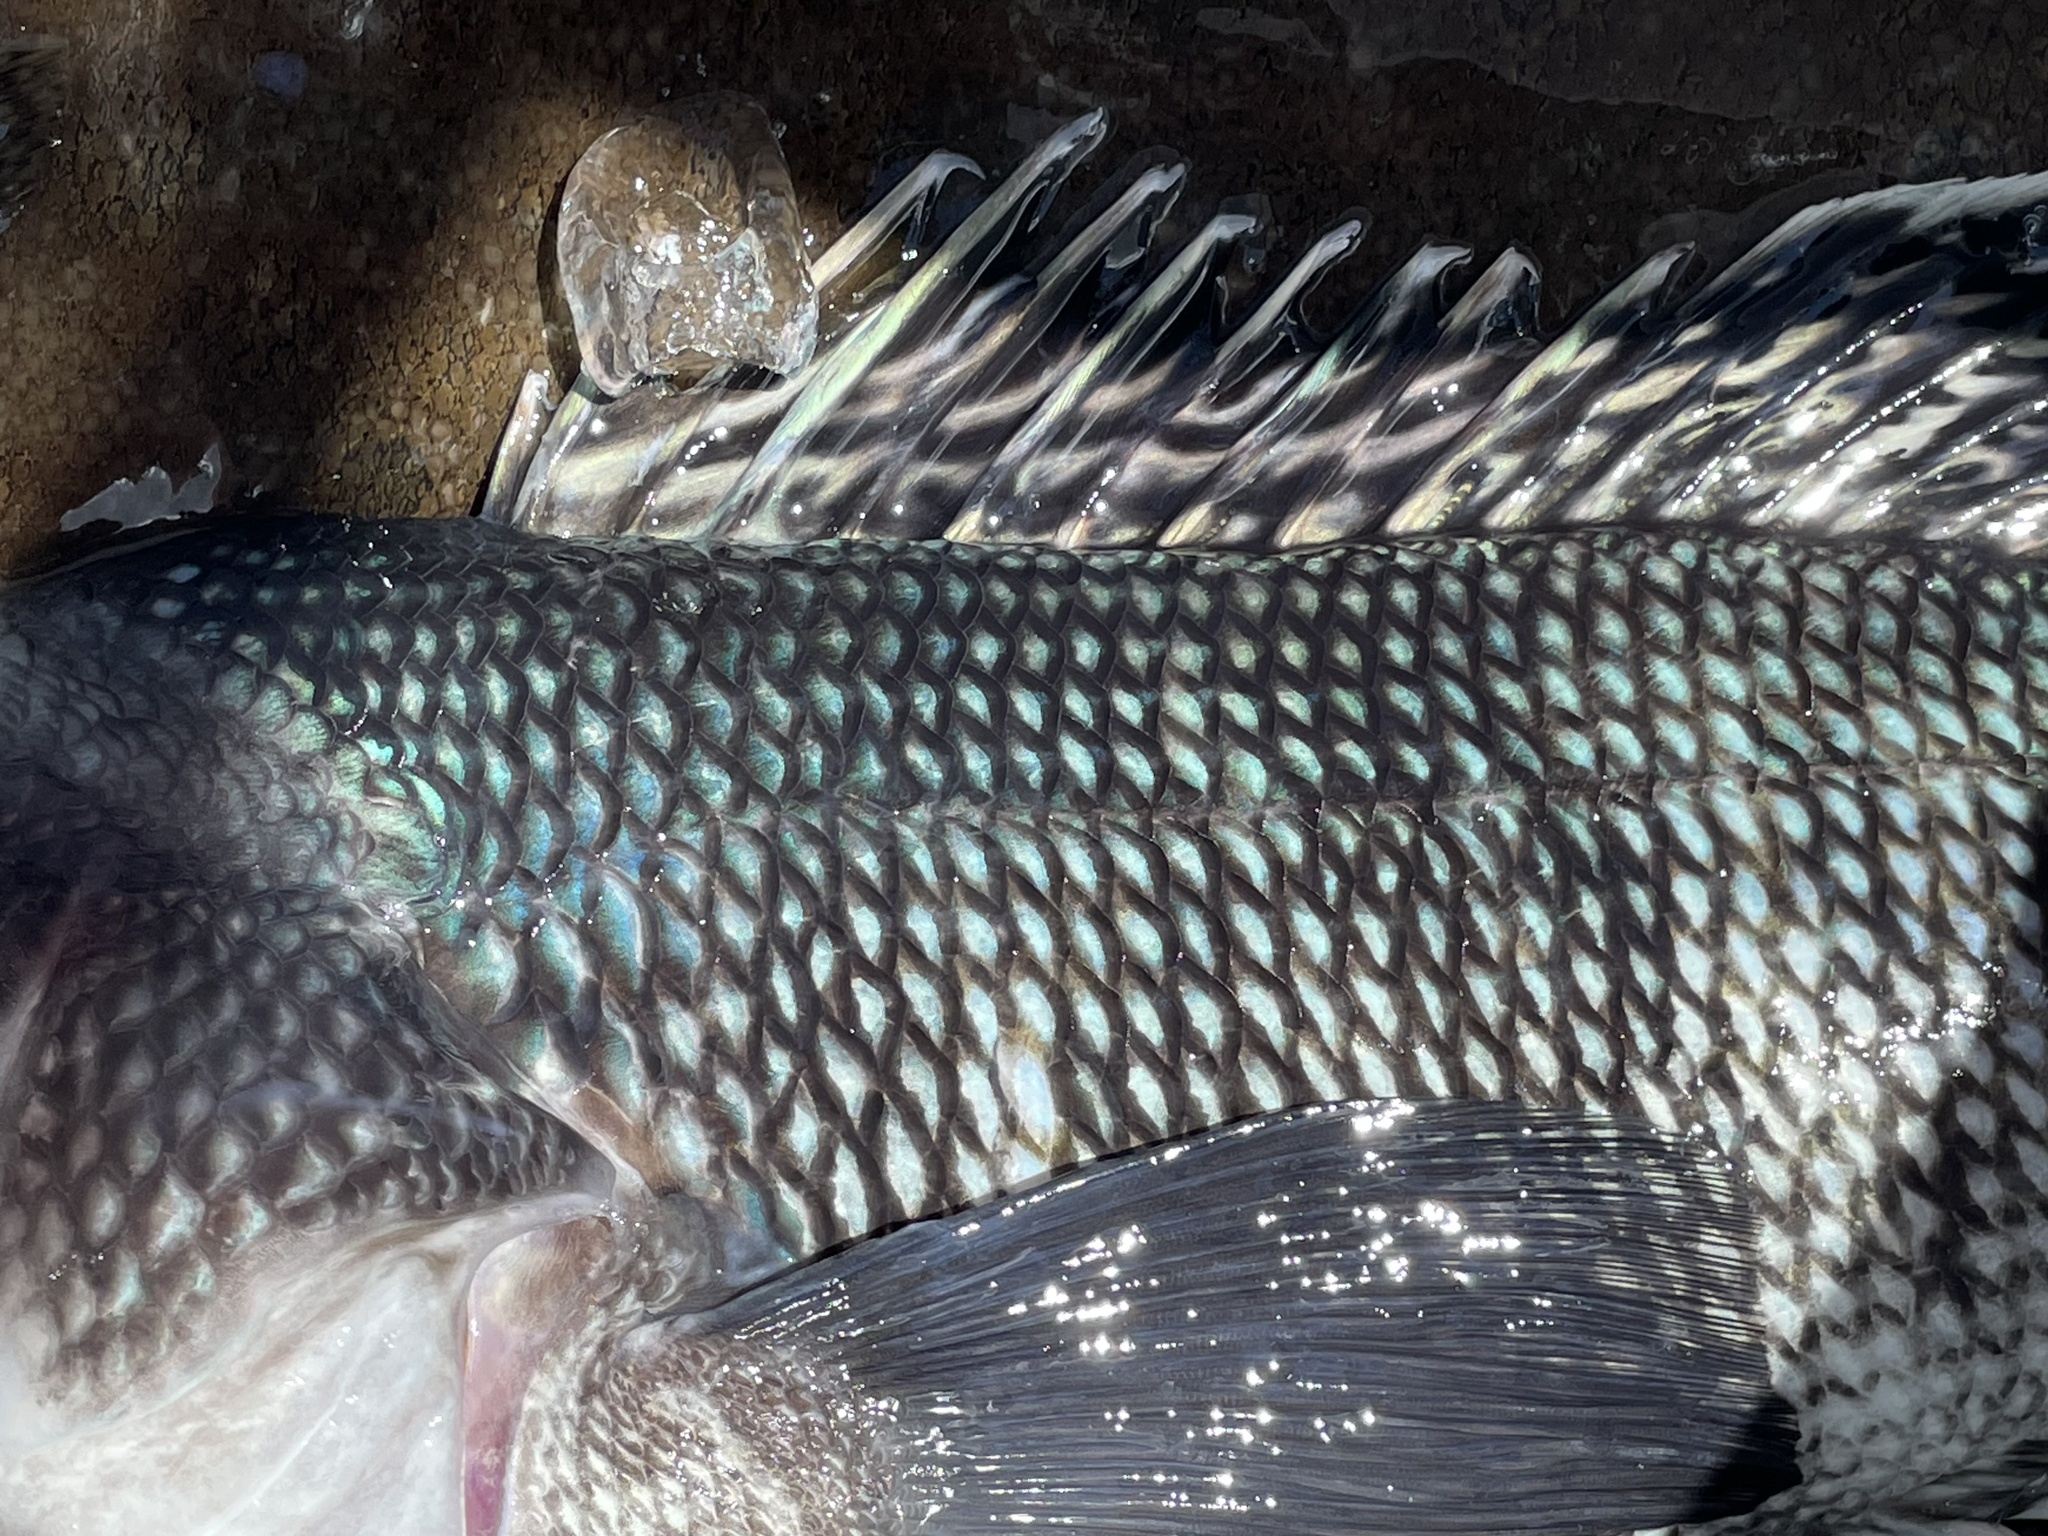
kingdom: Animalia
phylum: Chordata
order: Perciformes
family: Serranidae
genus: Centropristis
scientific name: Centropristis striata
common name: Black sea bass
